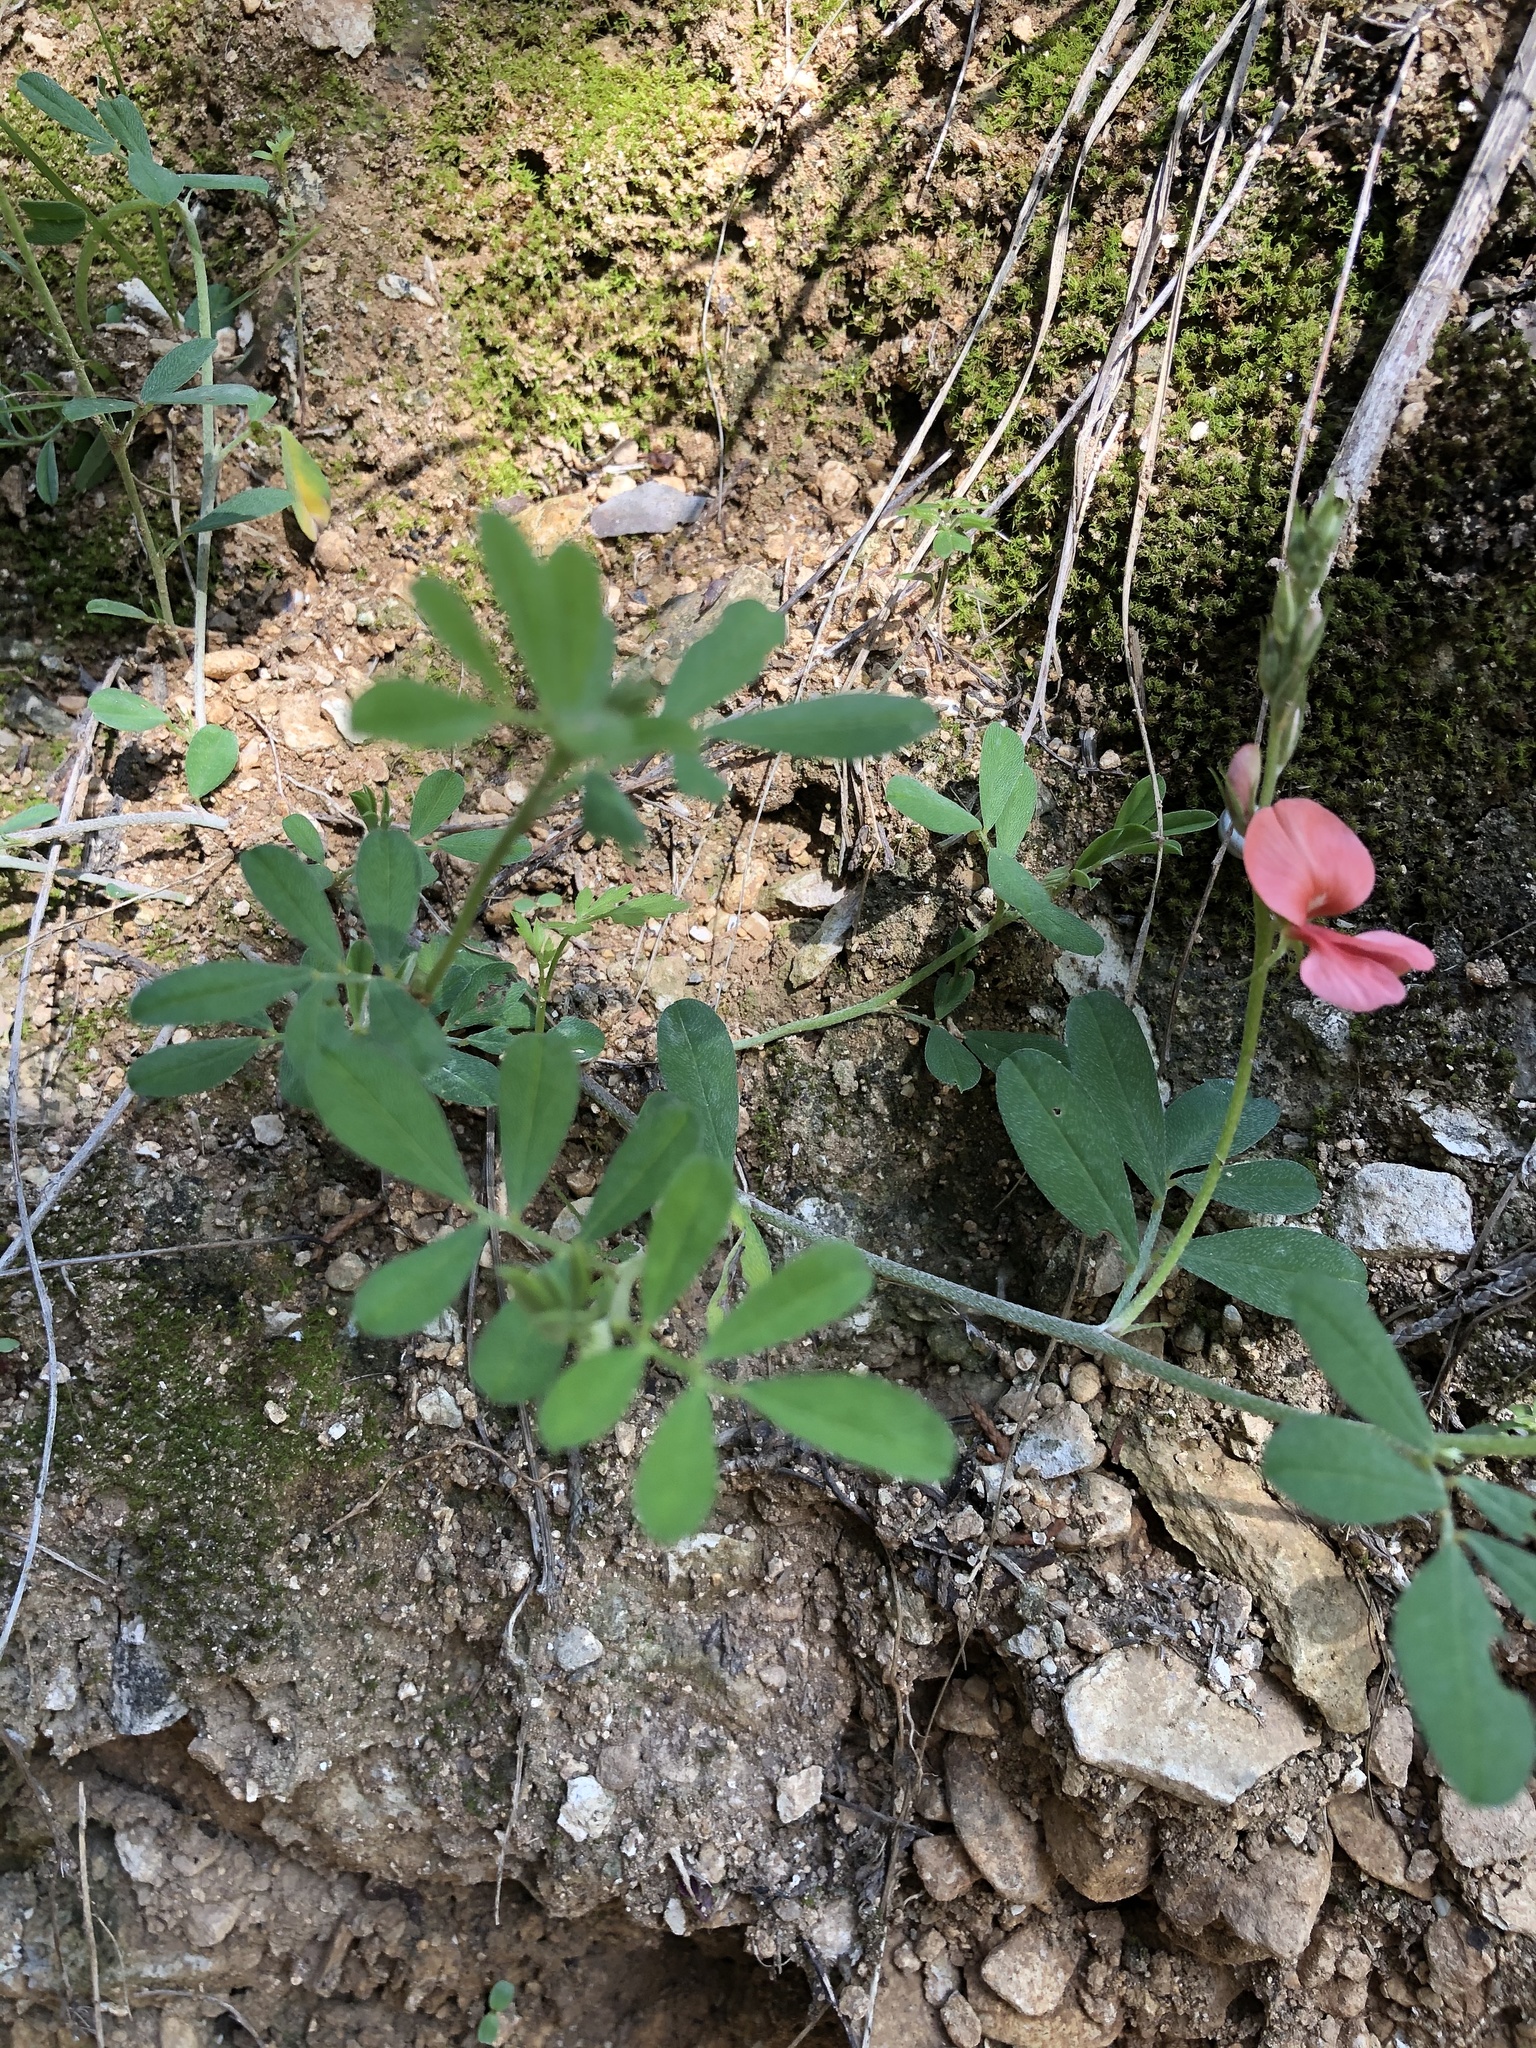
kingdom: Plantae
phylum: Tracheophyta
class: Magnoliopsida
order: Fabales
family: Fabaceae
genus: Indigofera
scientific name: Indigofera miniata
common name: Coast indigo
